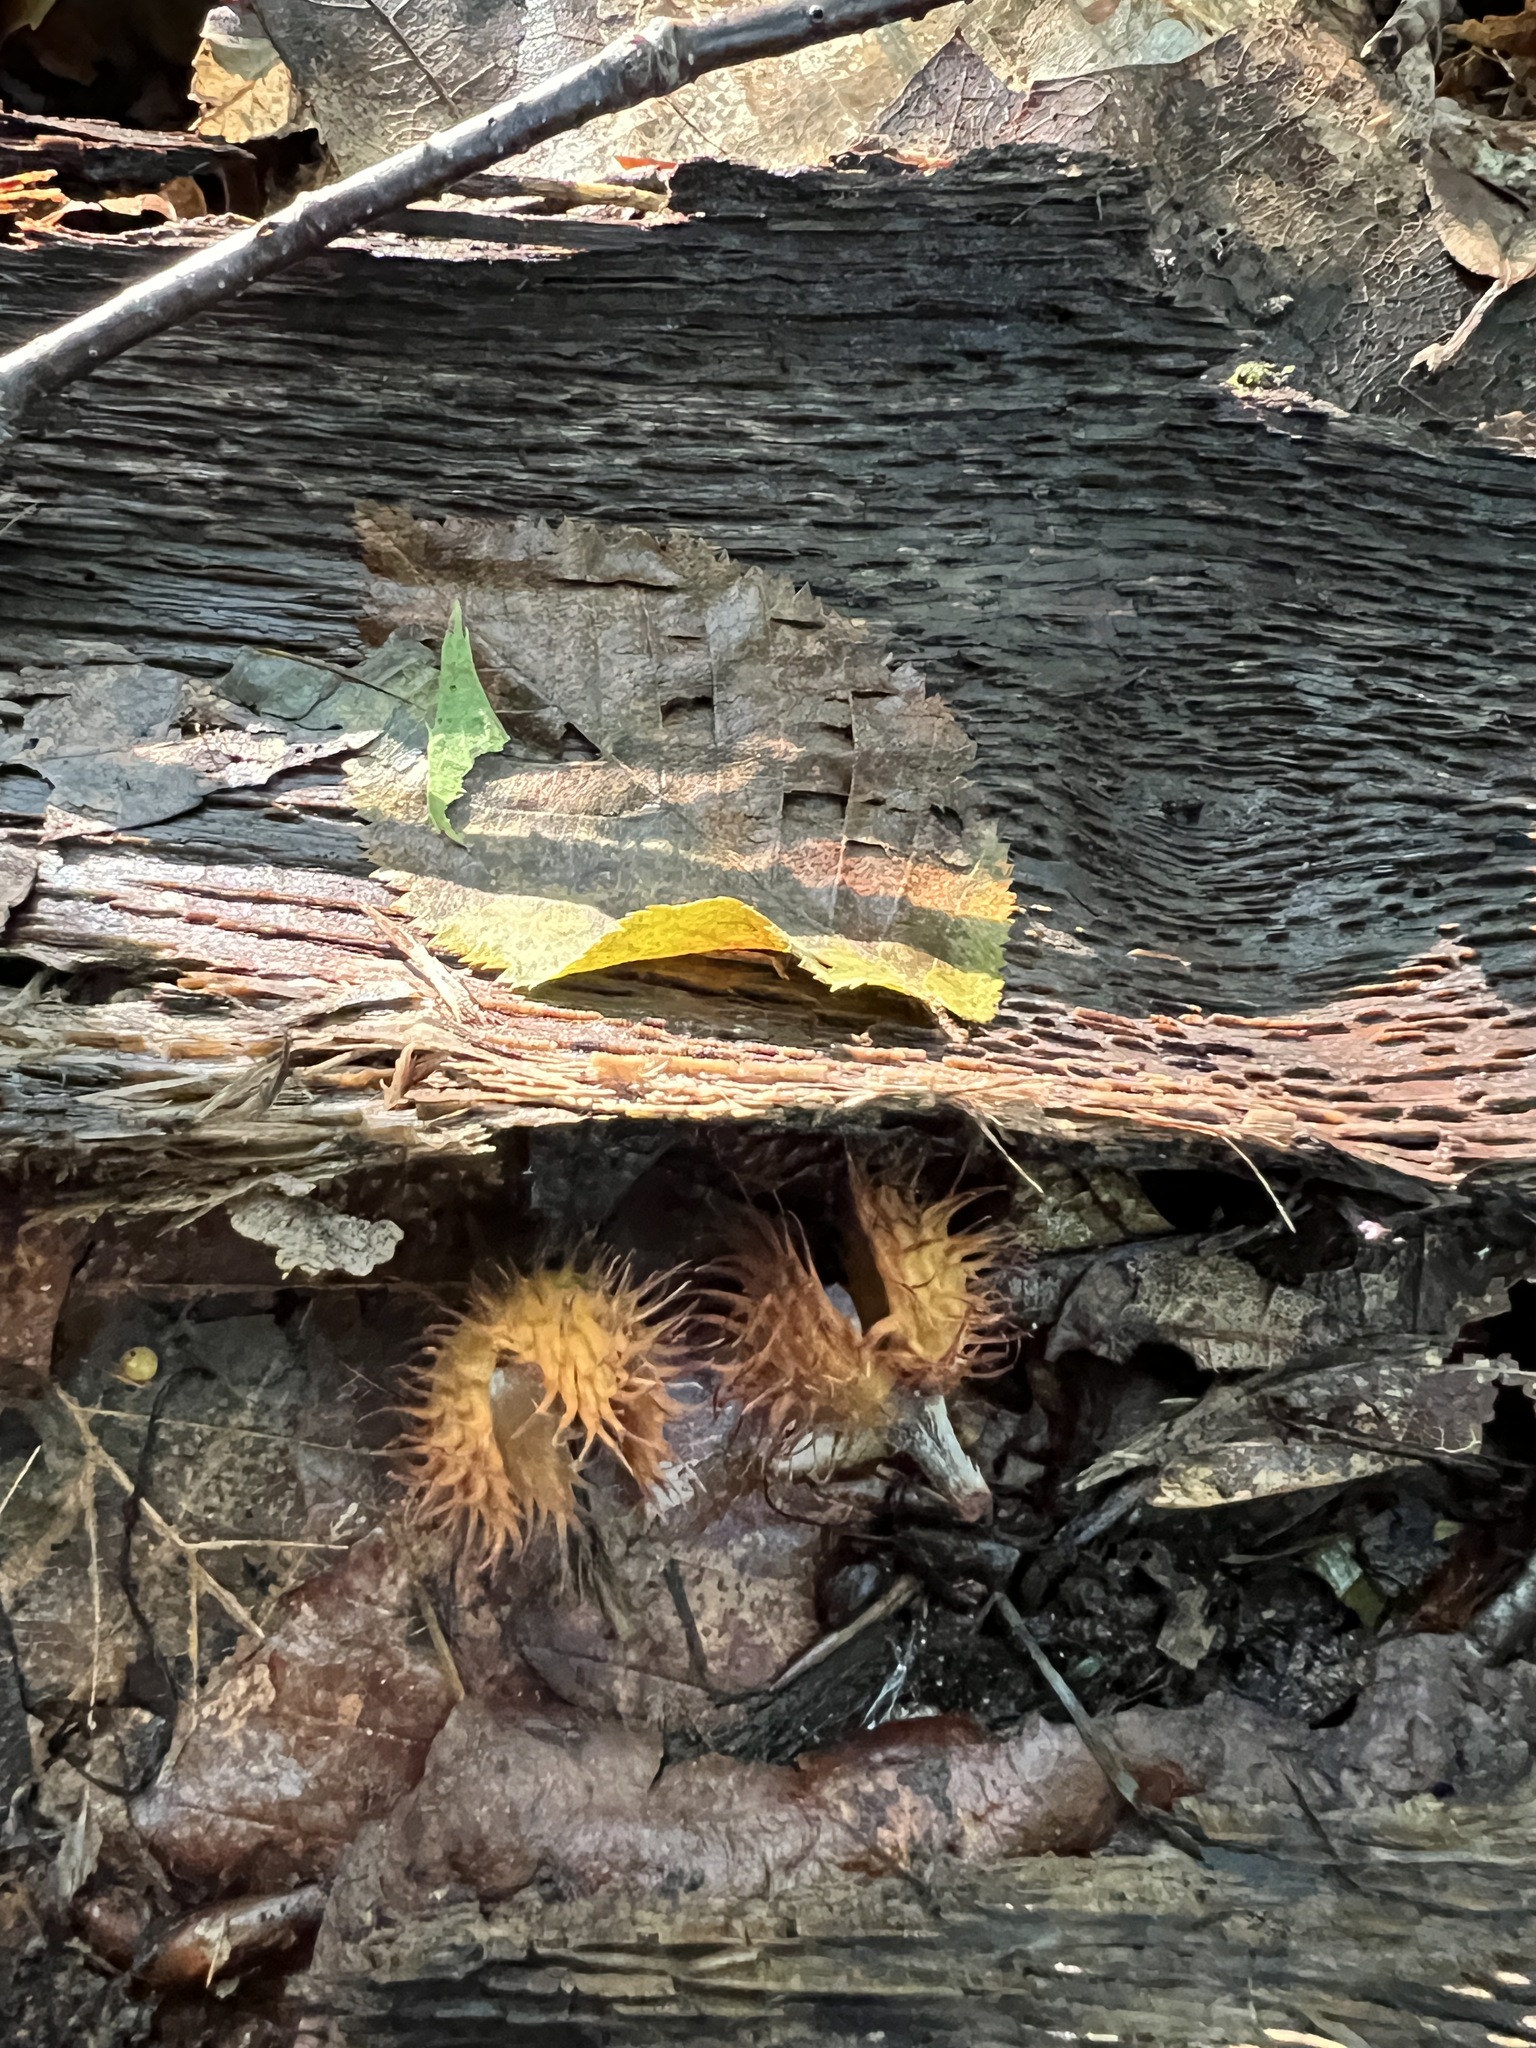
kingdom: Plantae
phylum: Tracheophyta
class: Magnoliopsida
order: Fagales
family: Fagaceae
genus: Fagus
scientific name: Fagus grandifolia
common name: American beech
